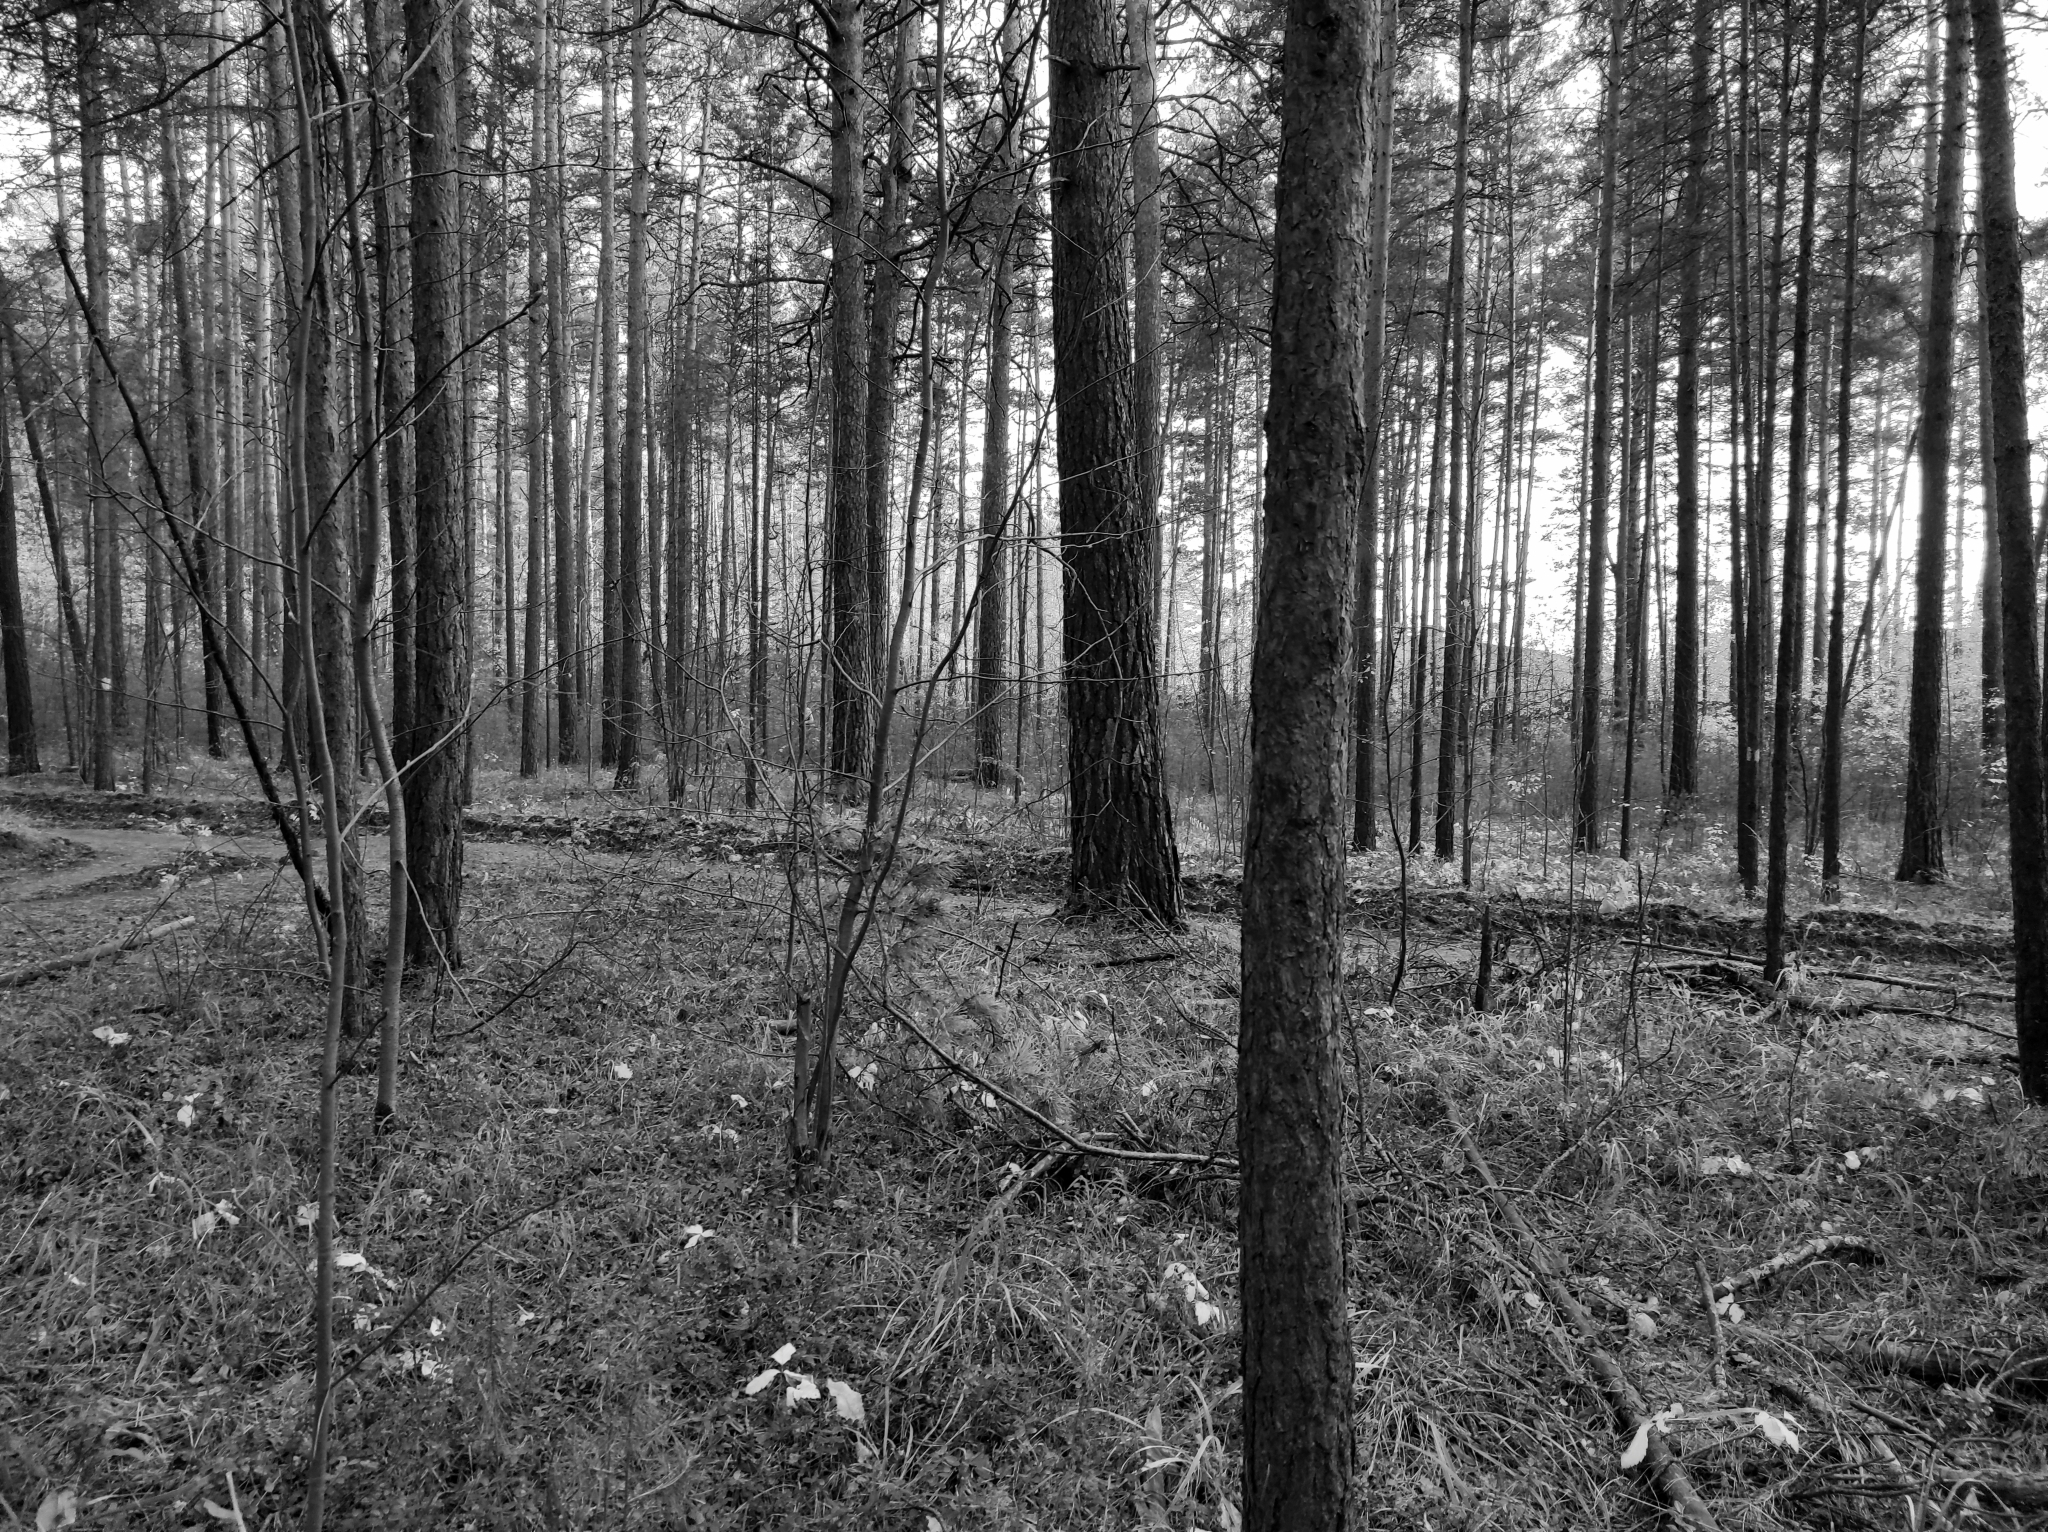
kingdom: Plantae
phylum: Tracheophyta
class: Pinopsida
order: Pinales
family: Pinaceae
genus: Pinus
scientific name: Pinus sylvestris
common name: Scots pine
